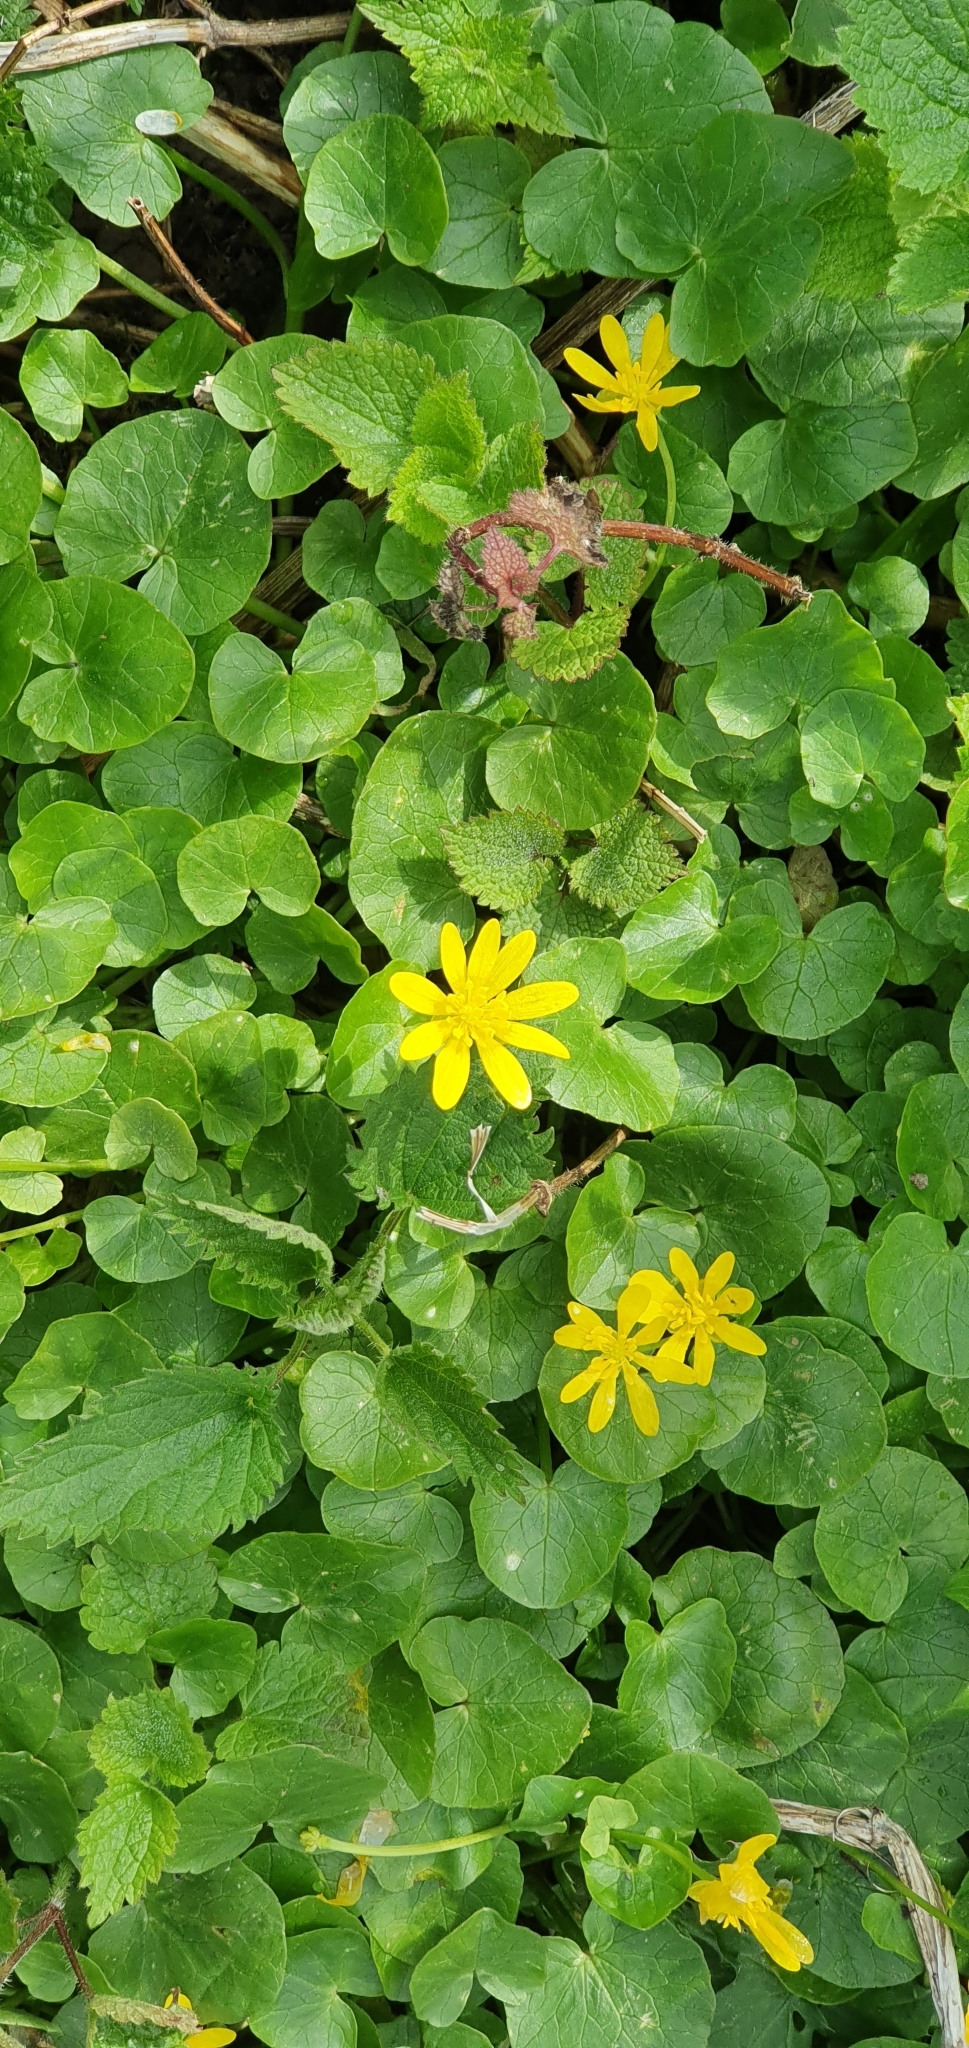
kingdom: Plantae
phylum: Tracheophyta
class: Magnoliopsida
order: Ranunculales
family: Ranunculaceae
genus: Ficaria
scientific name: Ficaria verna
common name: Lesser celandine
